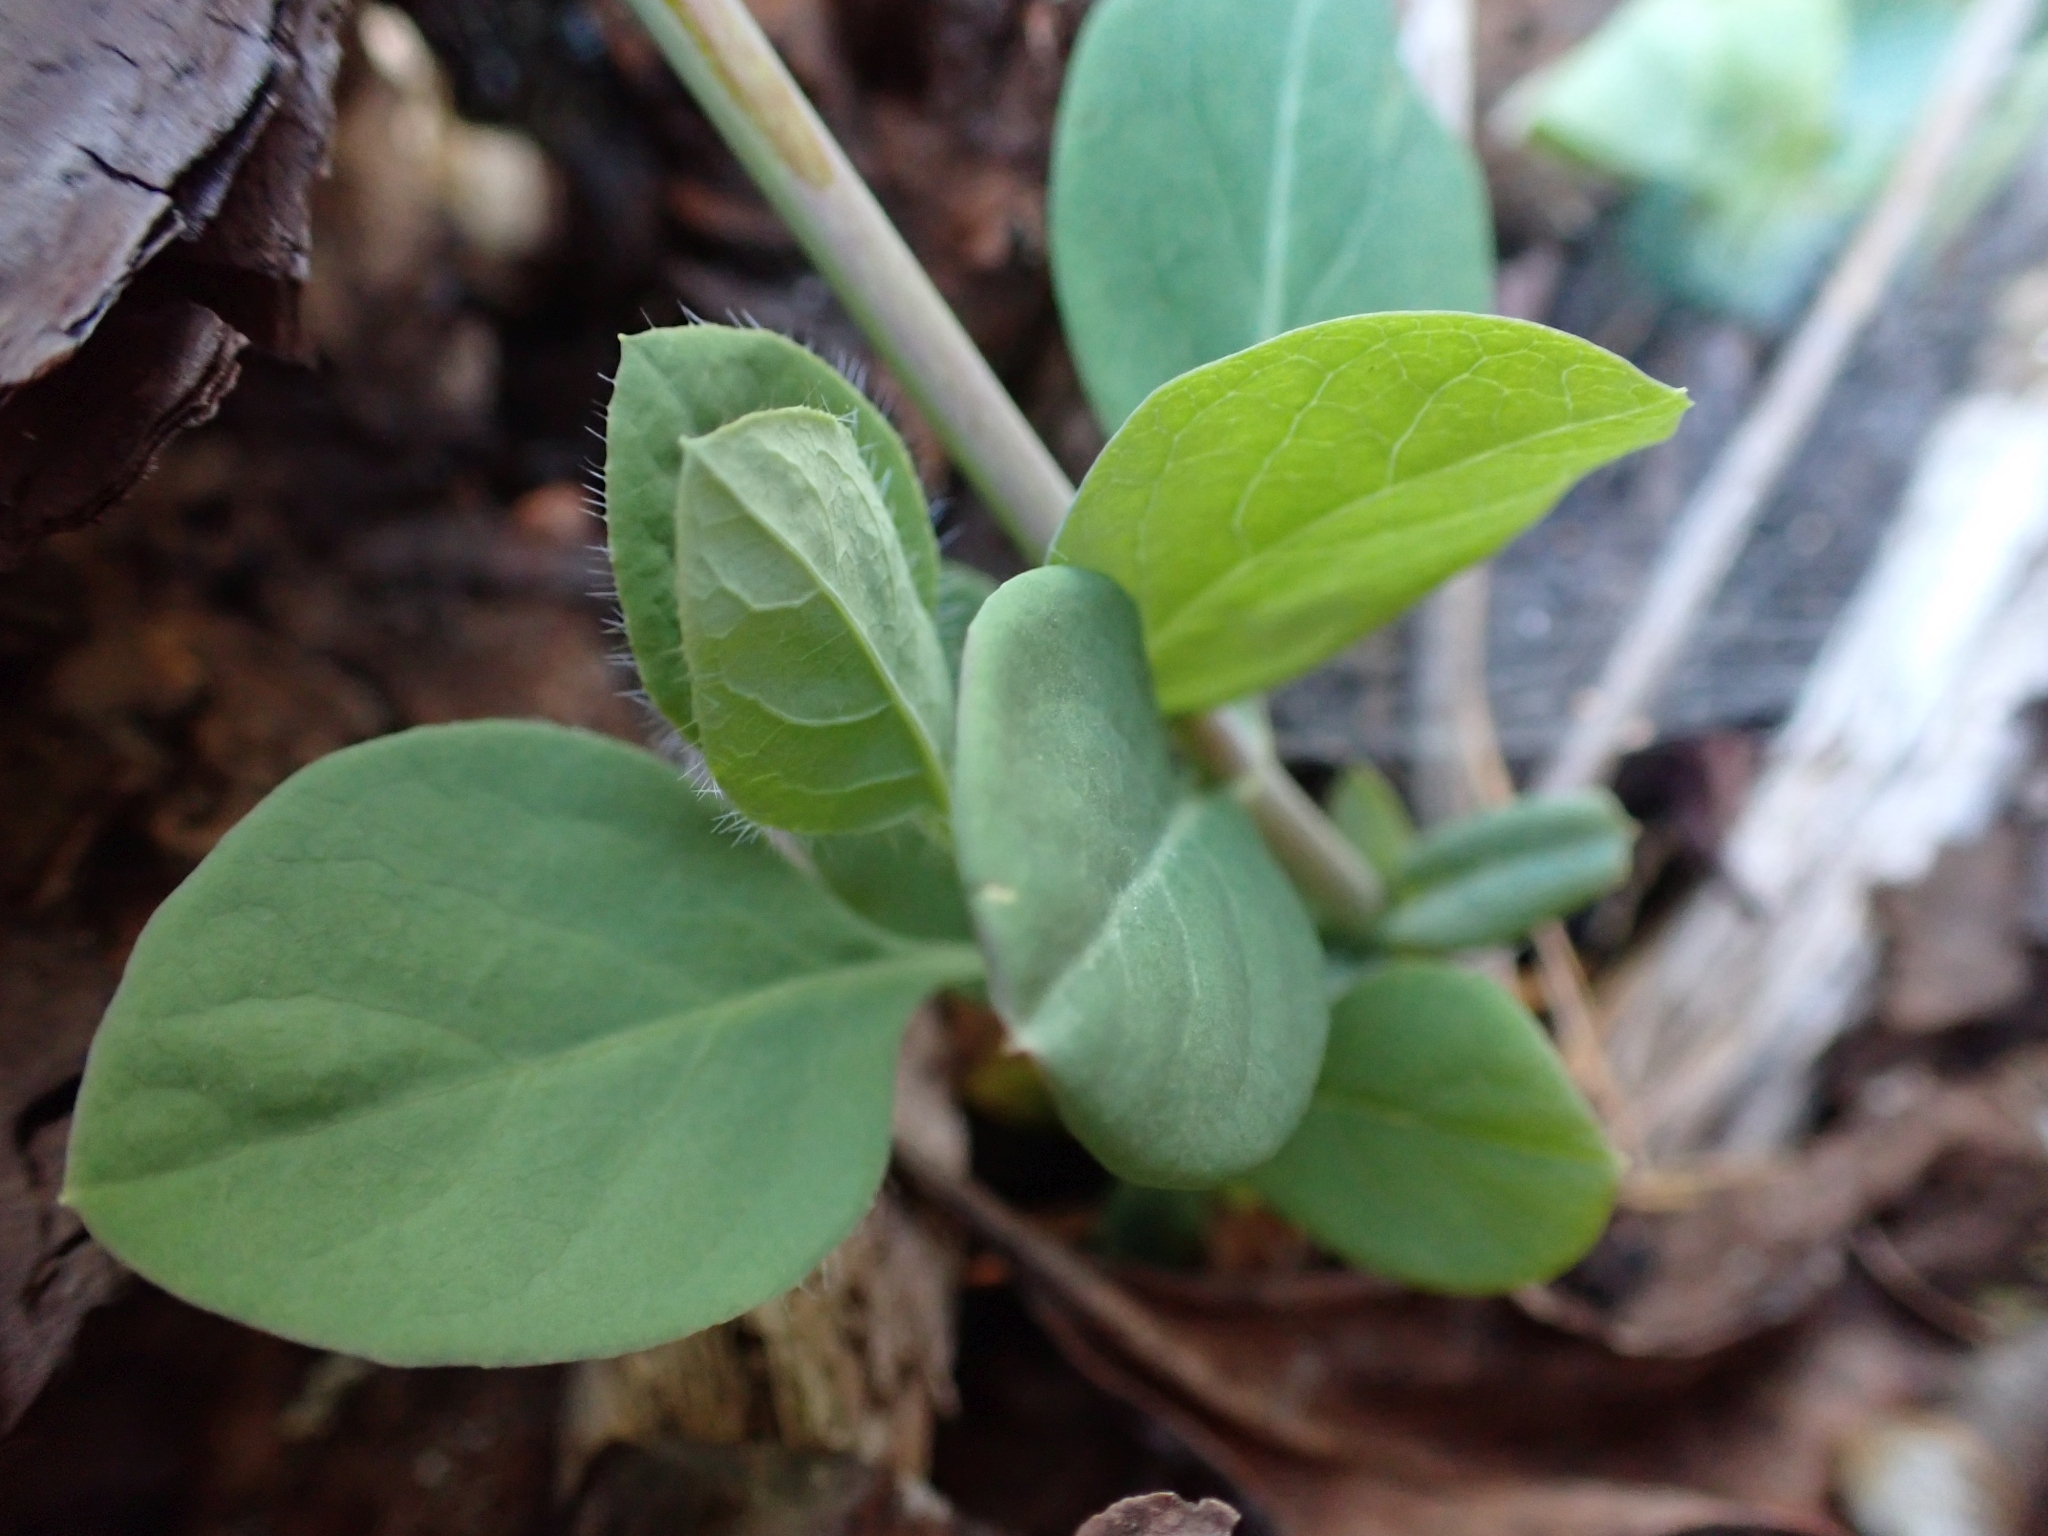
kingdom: Plantae
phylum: Tracheophyta
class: Magnoliopsida
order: Dipsacales
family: Caprifoliaceae
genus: Lonicera
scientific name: Lonicera ciliosa
